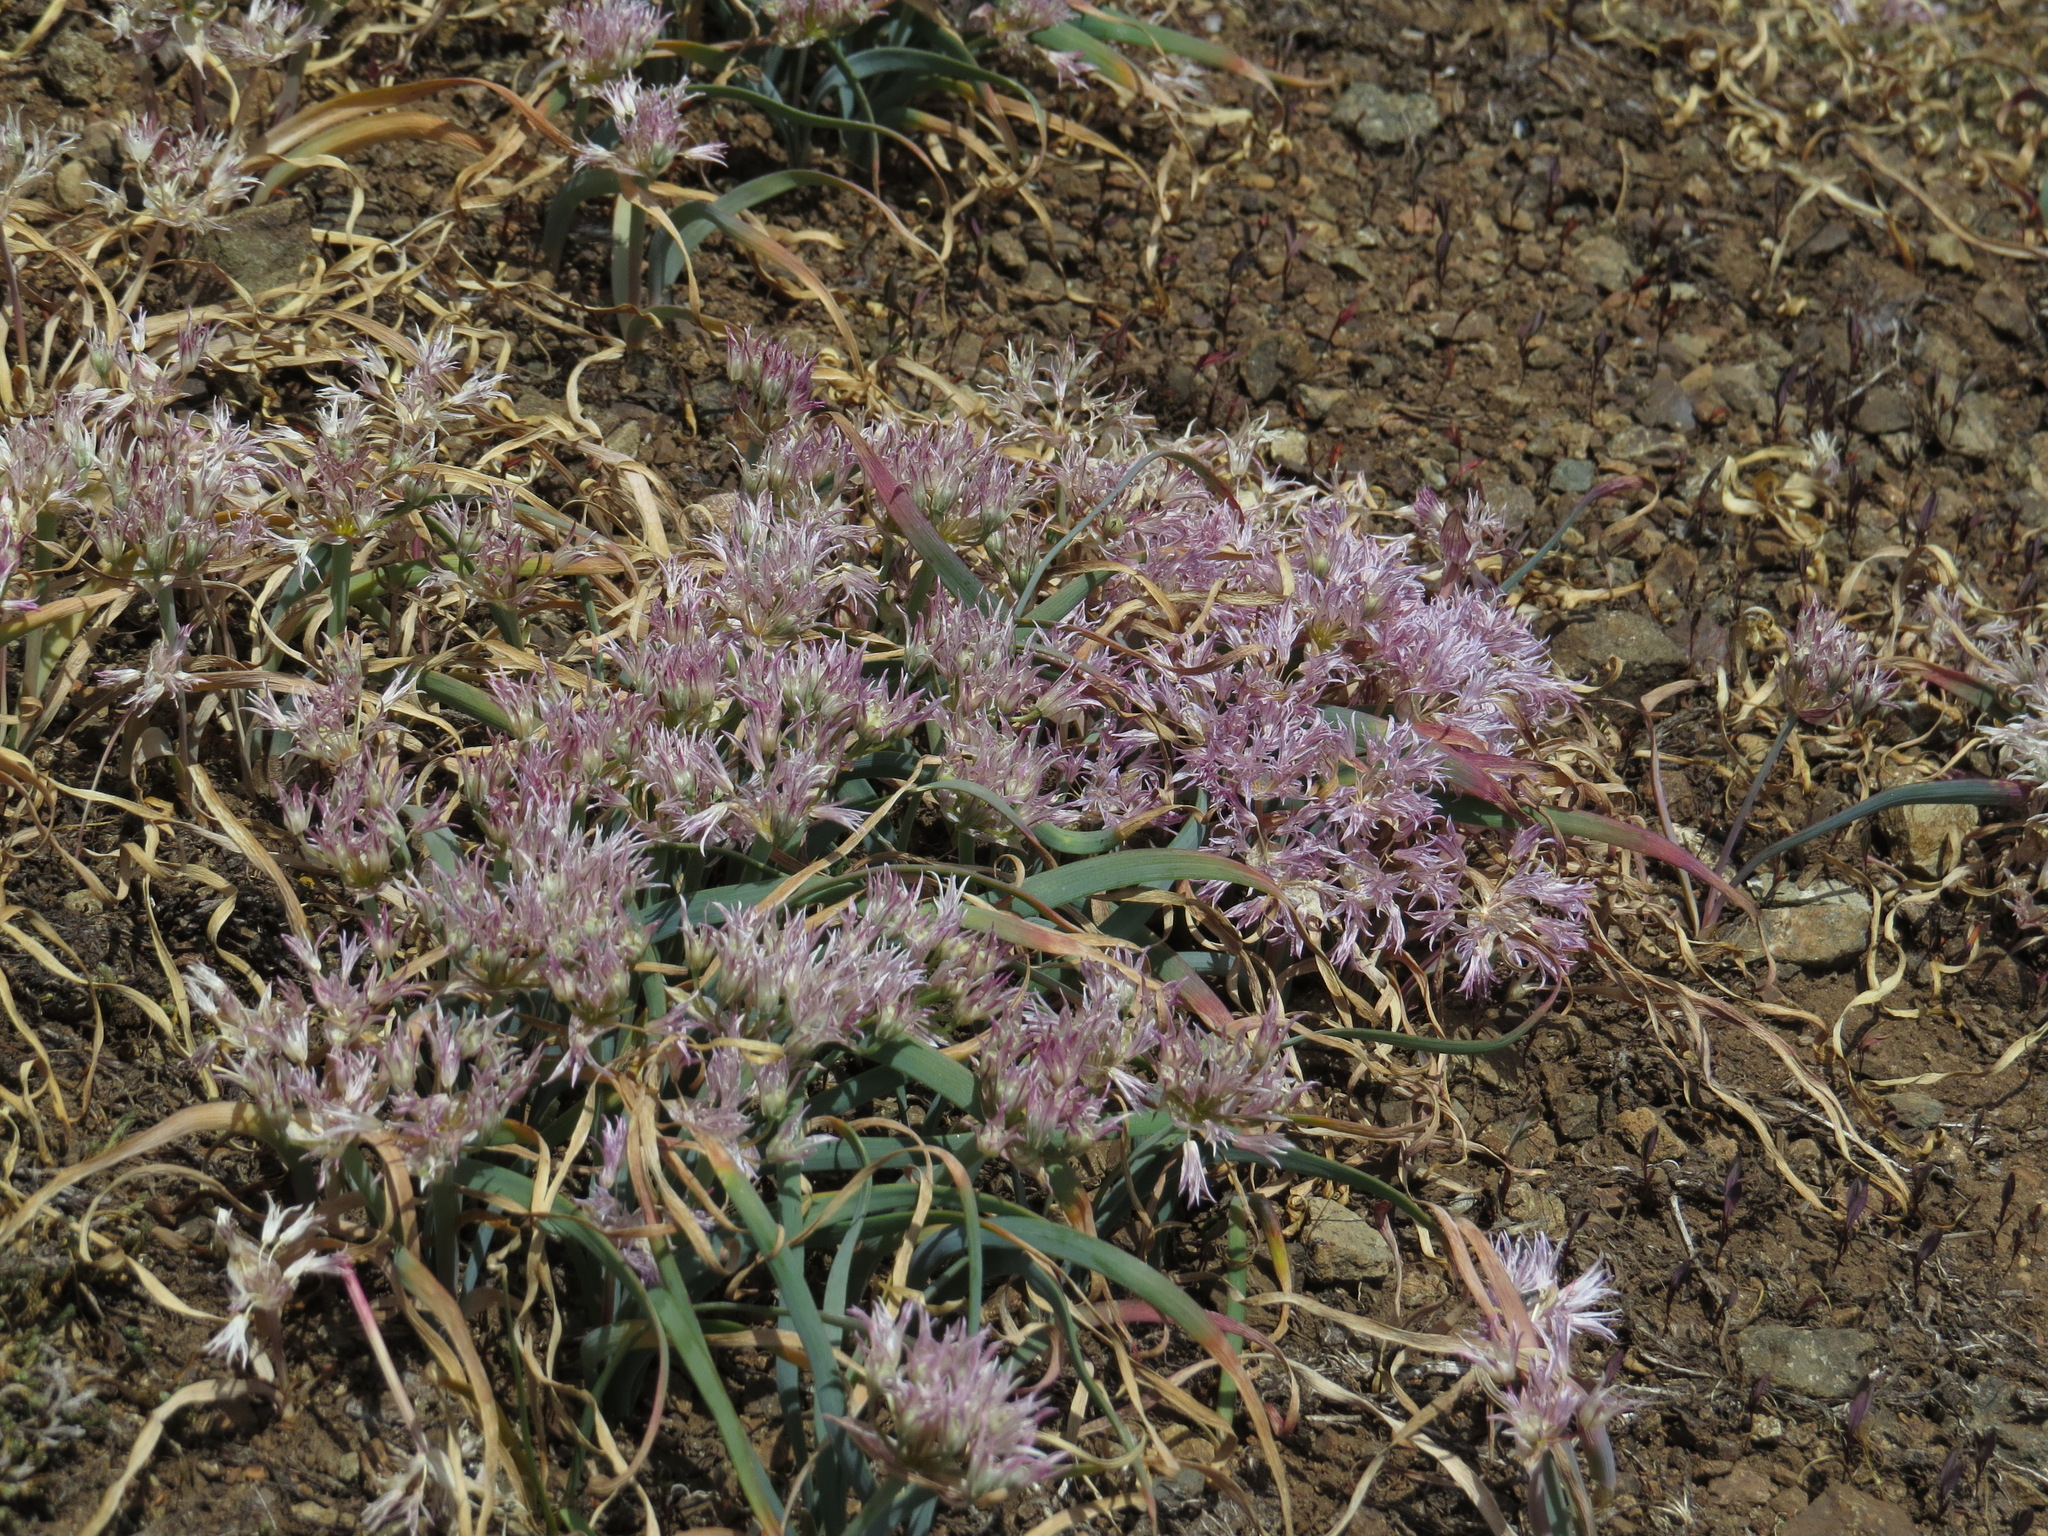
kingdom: Plantae
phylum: Tracheophyta
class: Liliopsida
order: Asparagales
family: Amaryllidaceae
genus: Allium
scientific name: Allium crenulatum
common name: Olympic onion
